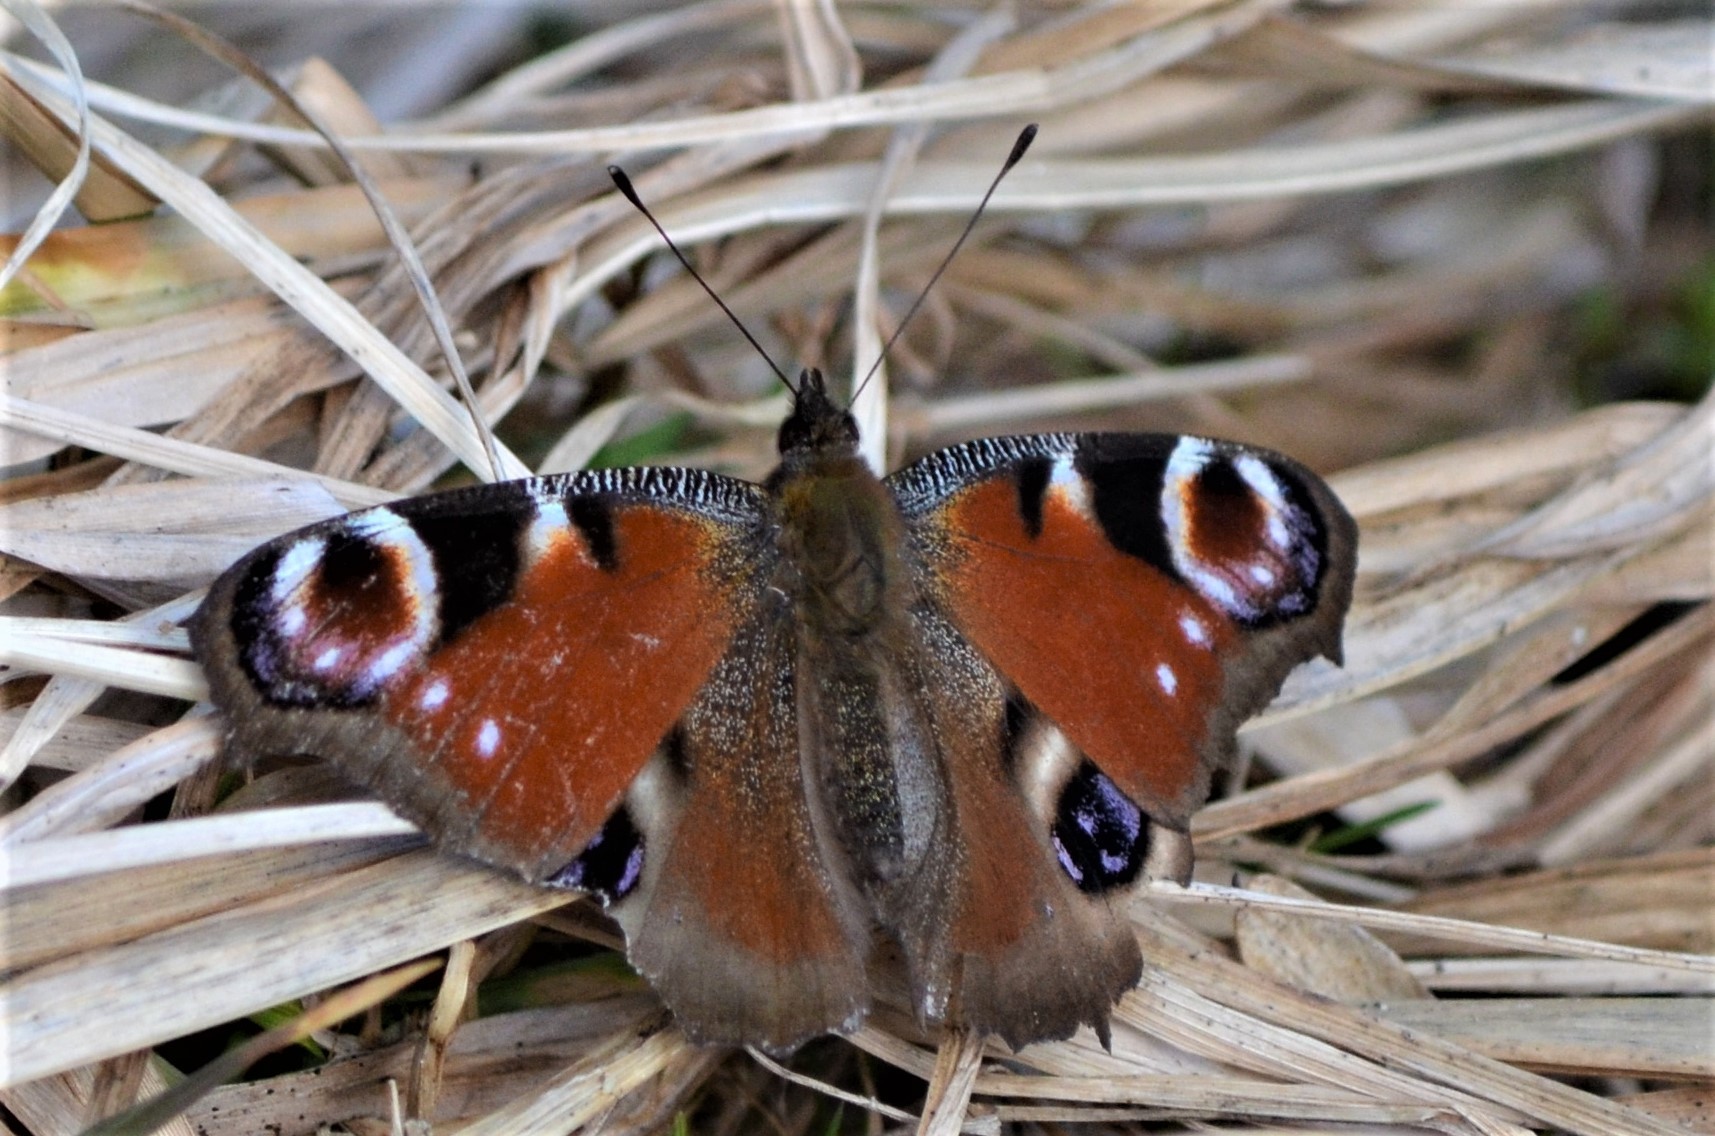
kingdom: Animalia
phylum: Arthropoda
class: Insecta
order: Lepidoptera
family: Nymphalidae
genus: Aglais
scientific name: Aglais io
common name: Peacock
